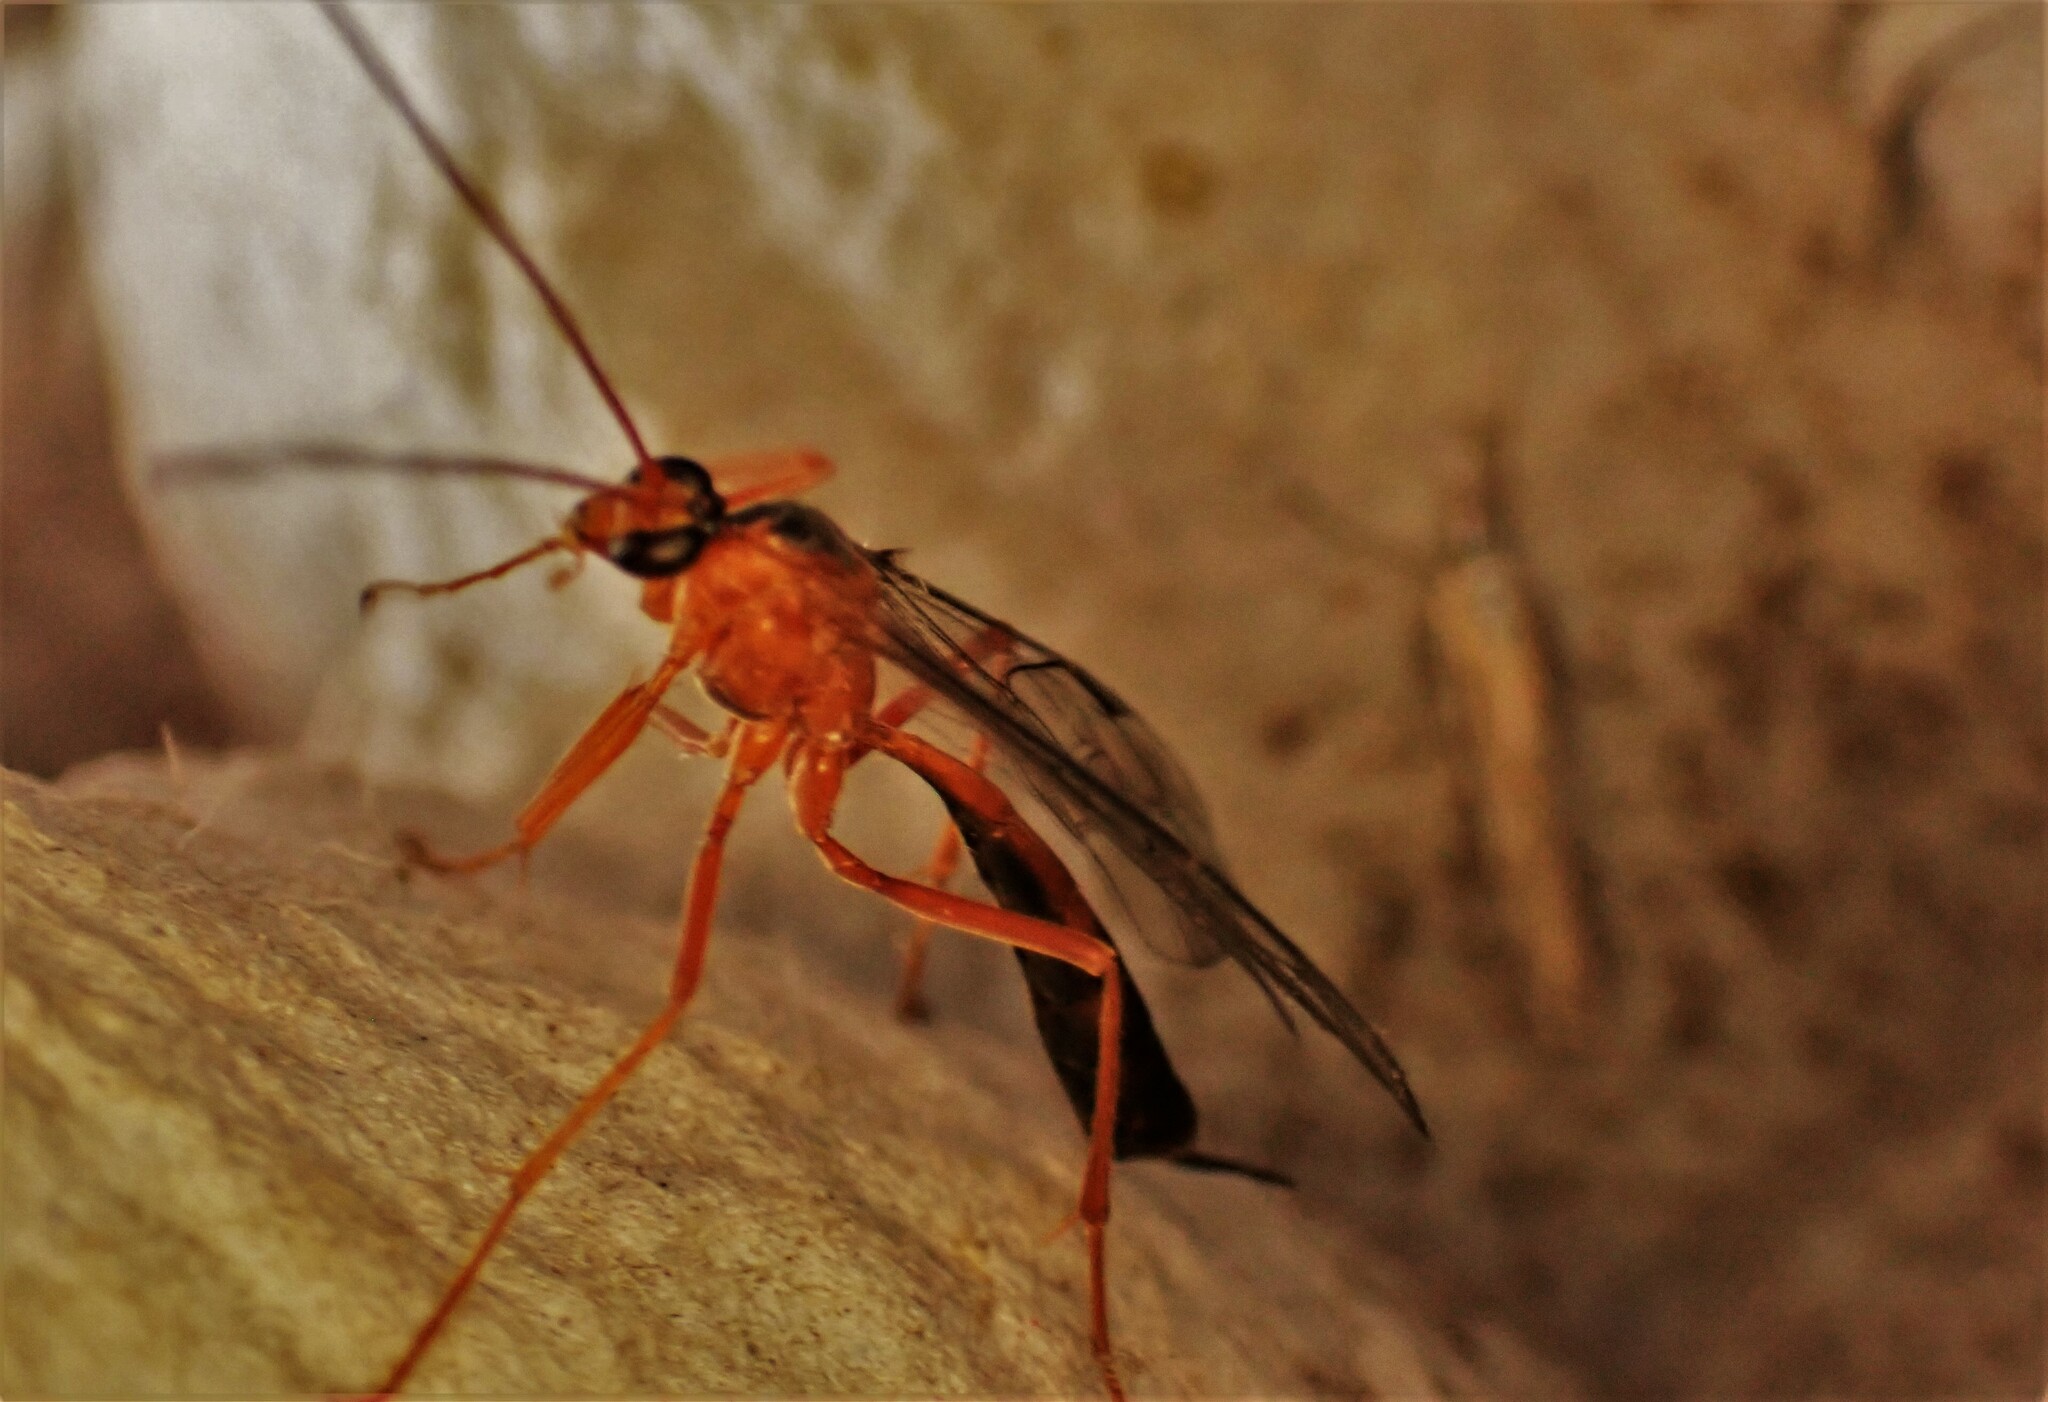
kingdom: Animalia
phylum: Arthropoda
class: Insecta
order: Hymenoptera
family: Ichneumonidae
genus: Netelia
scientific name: Netelia ephippiata
